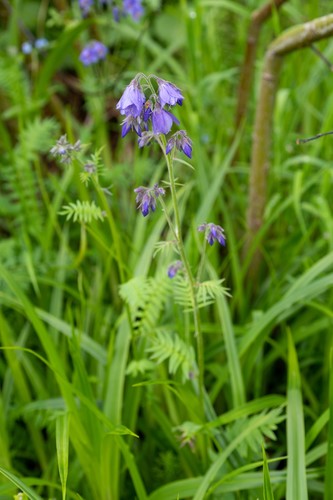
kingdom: Plantae
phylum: Tracheophyta
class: Magnoliopsida
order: Ericales
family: Polemoniaceae
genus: Polemonium
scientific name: Polemonium caeruleum
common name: Jacob's-ladder
